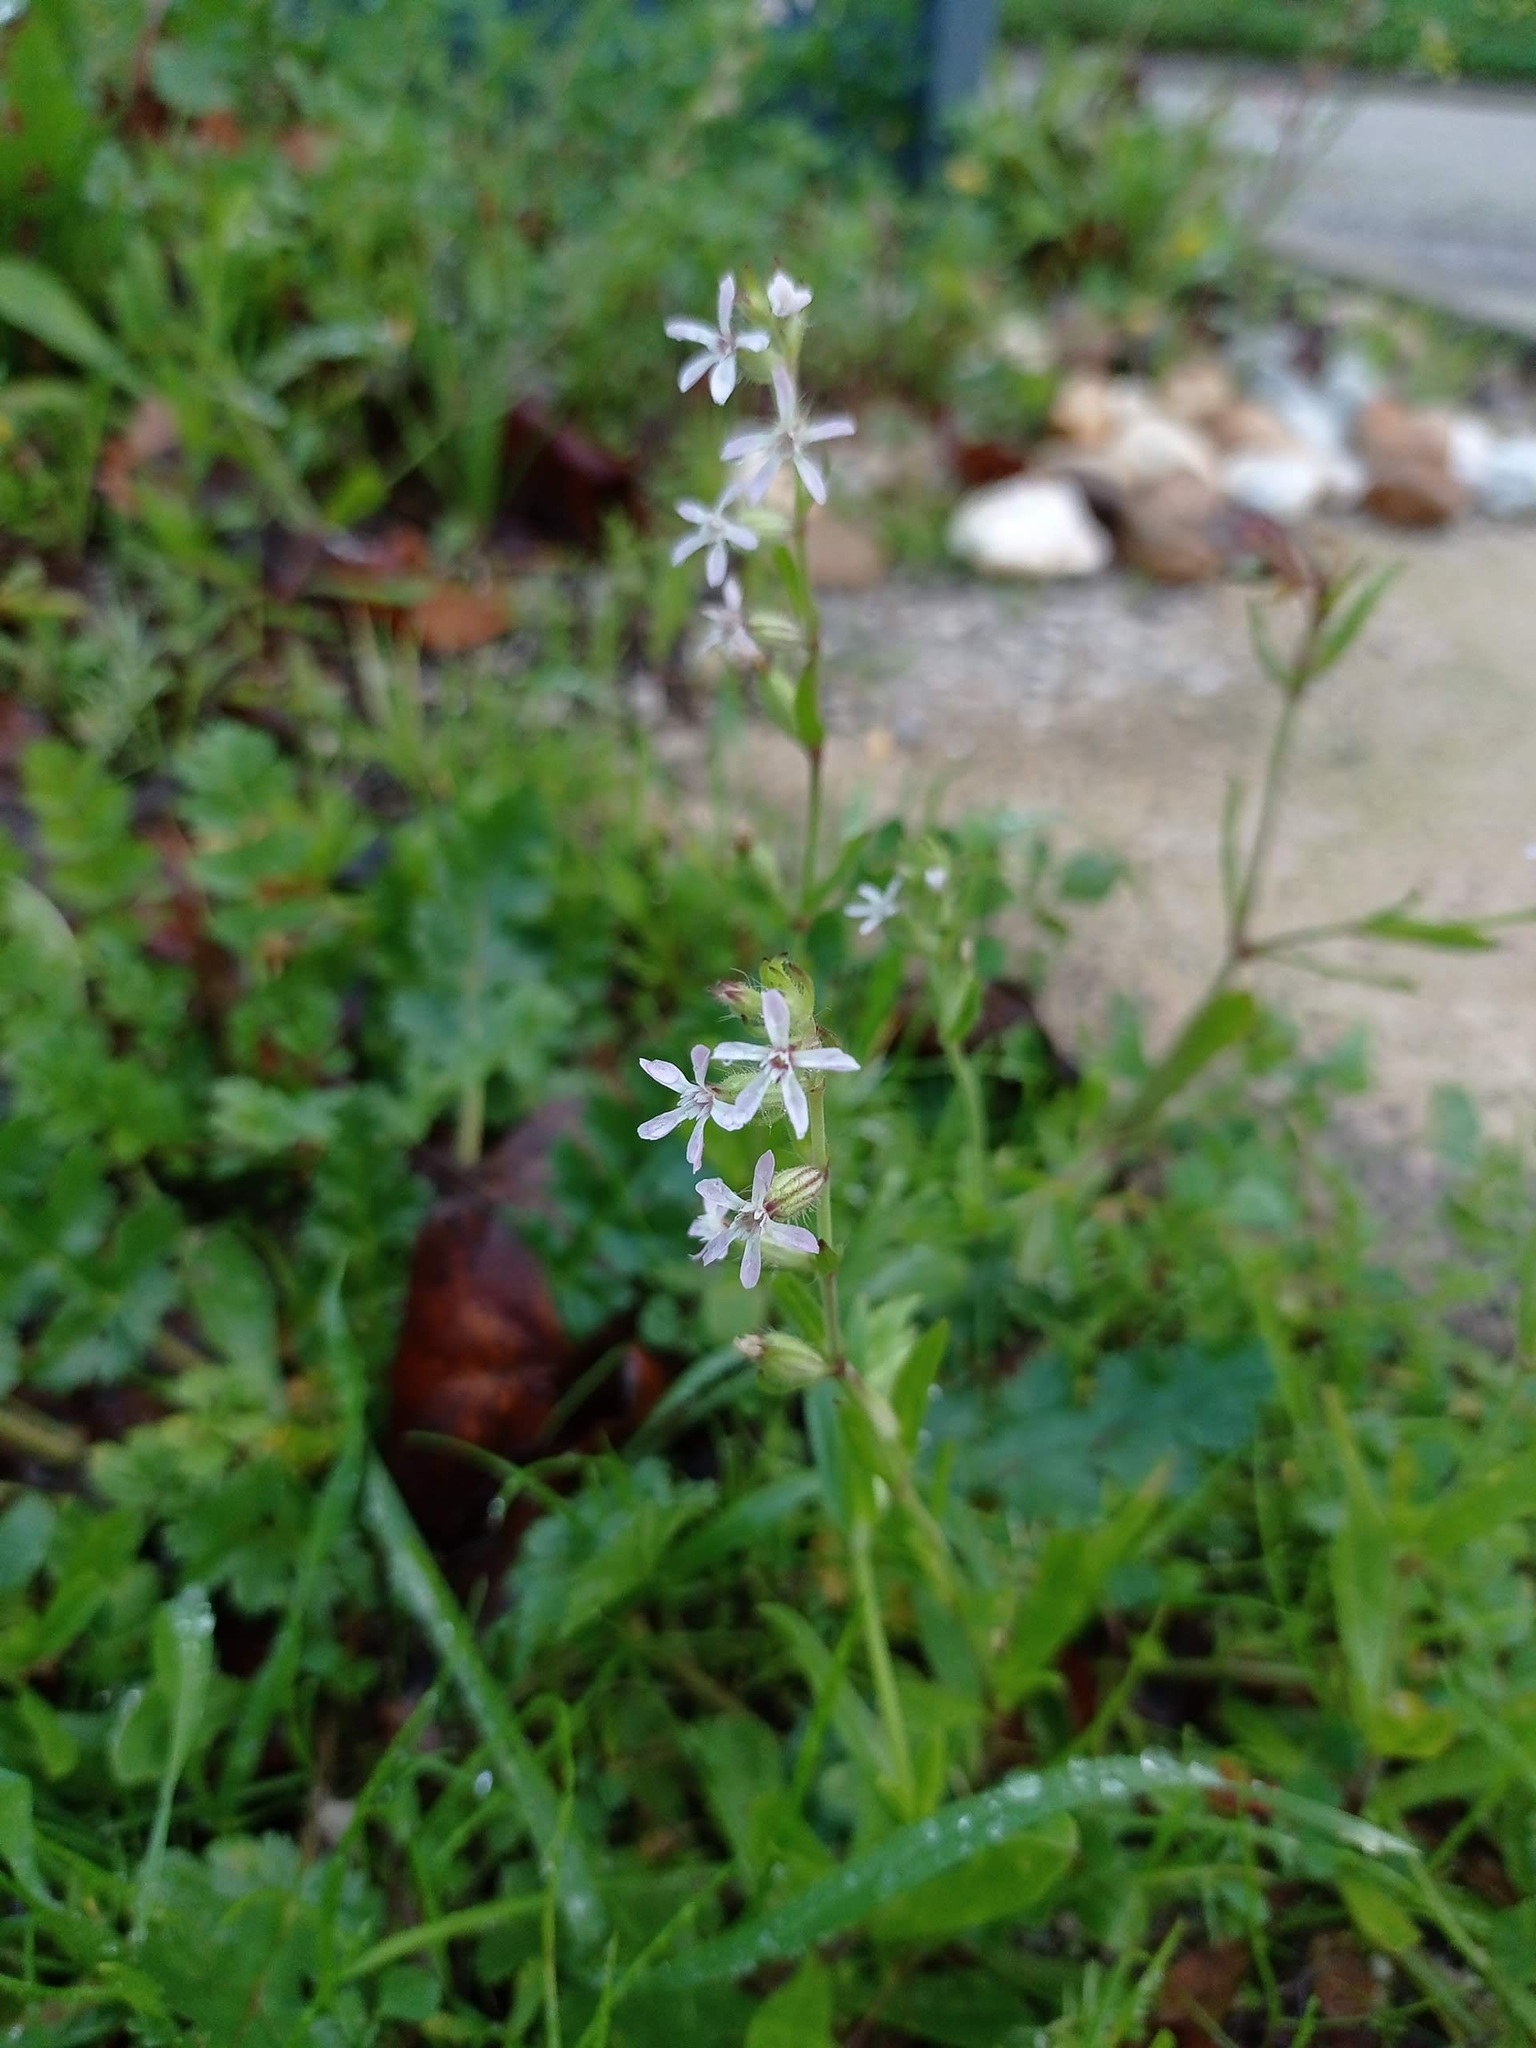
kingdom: Plantae
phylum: Tracheophyta
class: Magnoliopsida
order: Caryophyllales
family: Caryophyllaceae
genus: Silene
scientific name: Silene gallica
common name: Small-flowered catchfly
